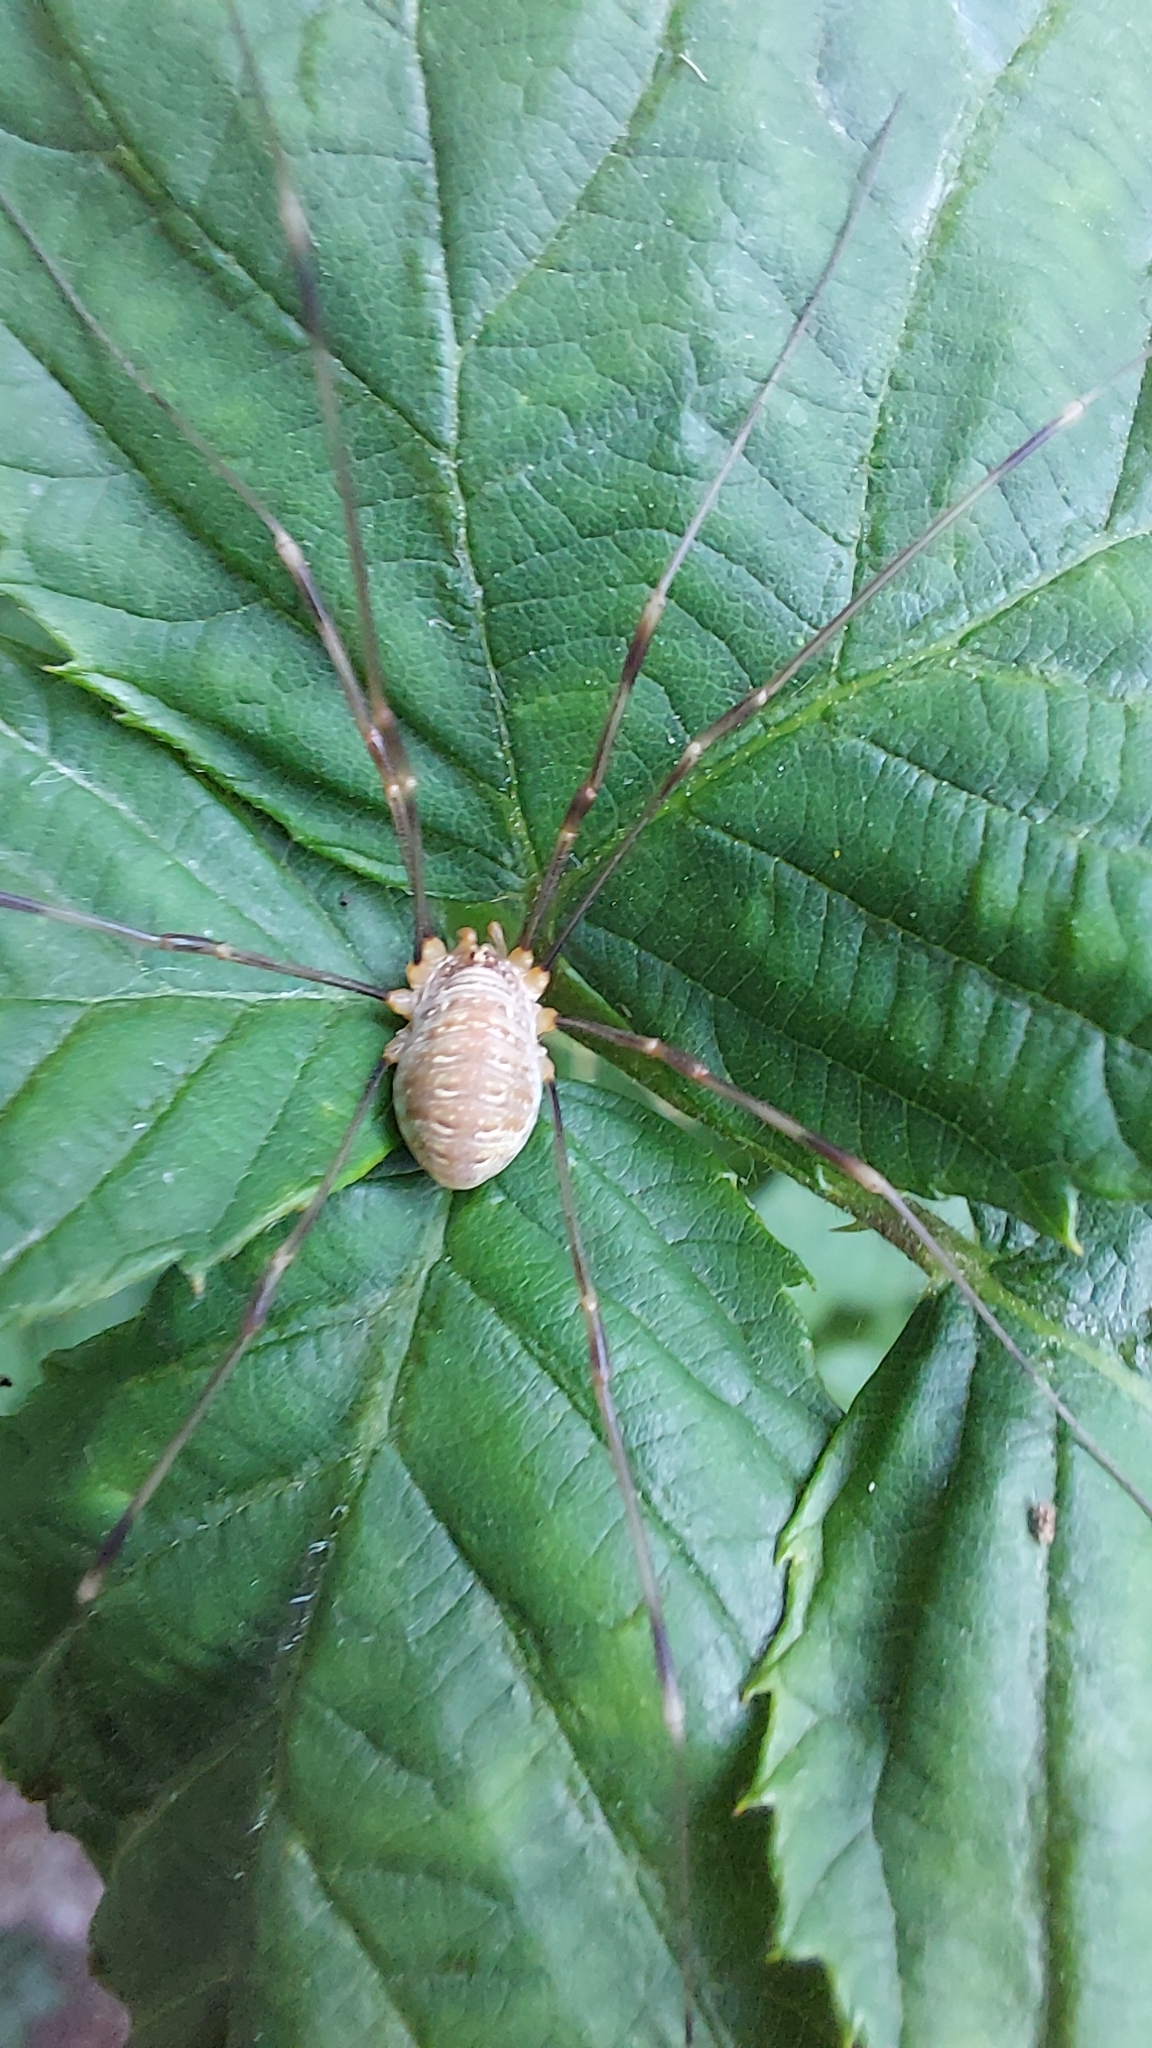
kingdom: Animalia
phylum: Arthropoda
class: Arachnida
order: Opiliones
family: Phalangiidae
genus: Opilio
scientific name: Opilio canestrinii
